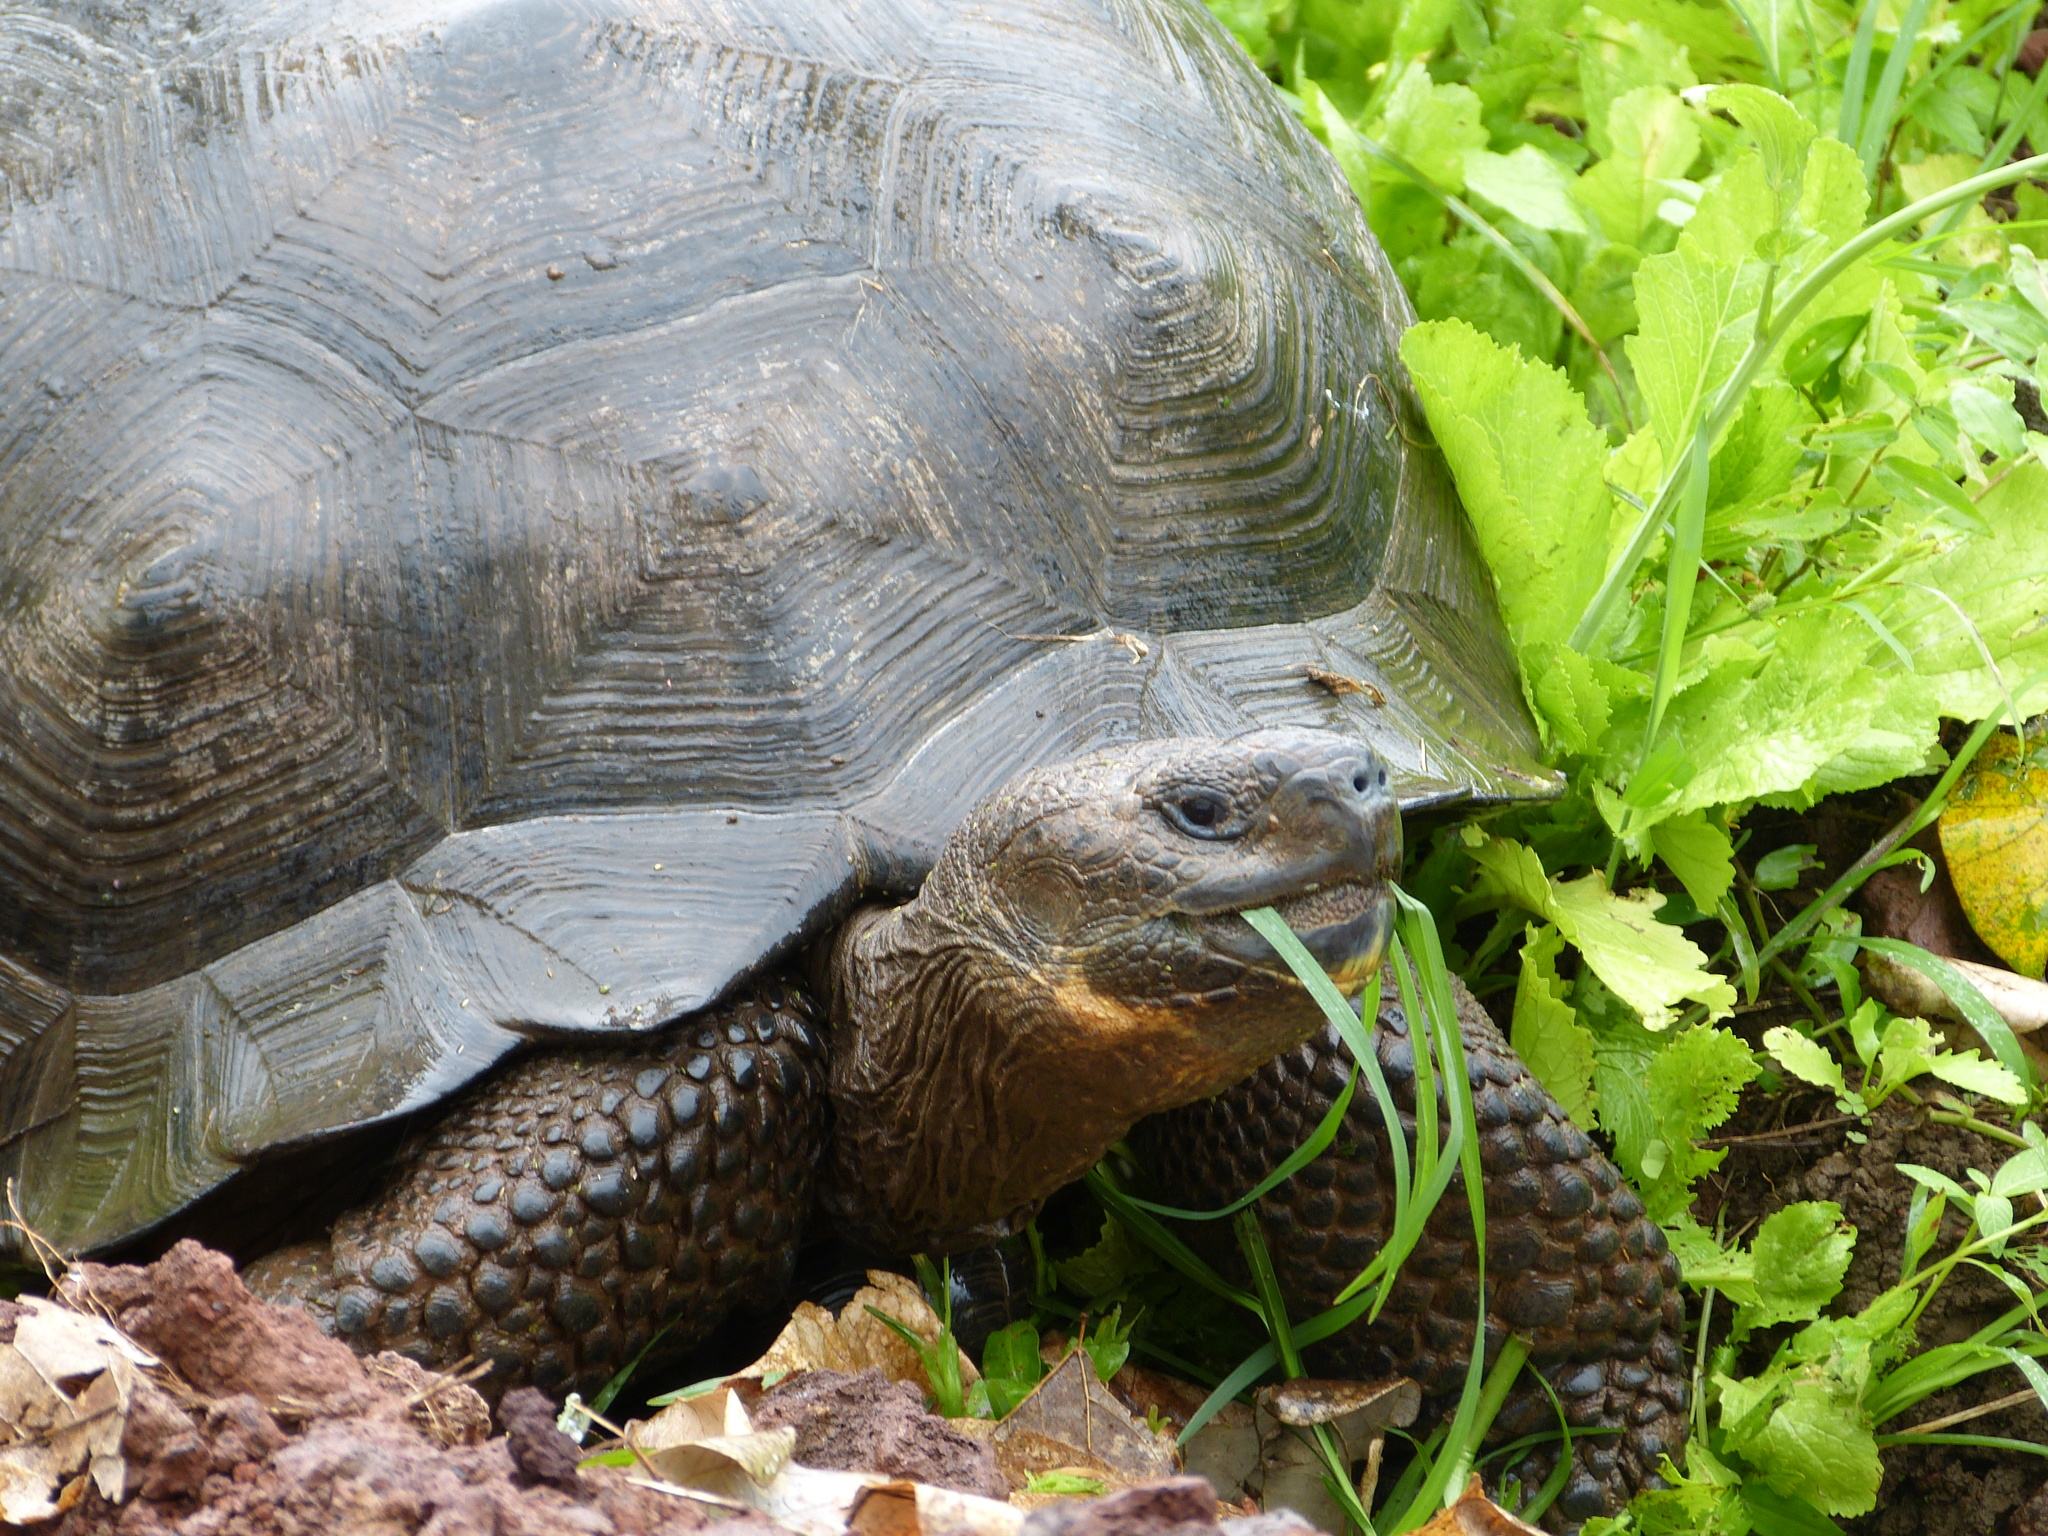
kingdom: Animalia
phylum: Chordata
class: Testudines
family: Testudinidae
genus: Chelonoidis
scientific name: Chelonoidis porteri
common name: Indefatigable island giant tortoise
